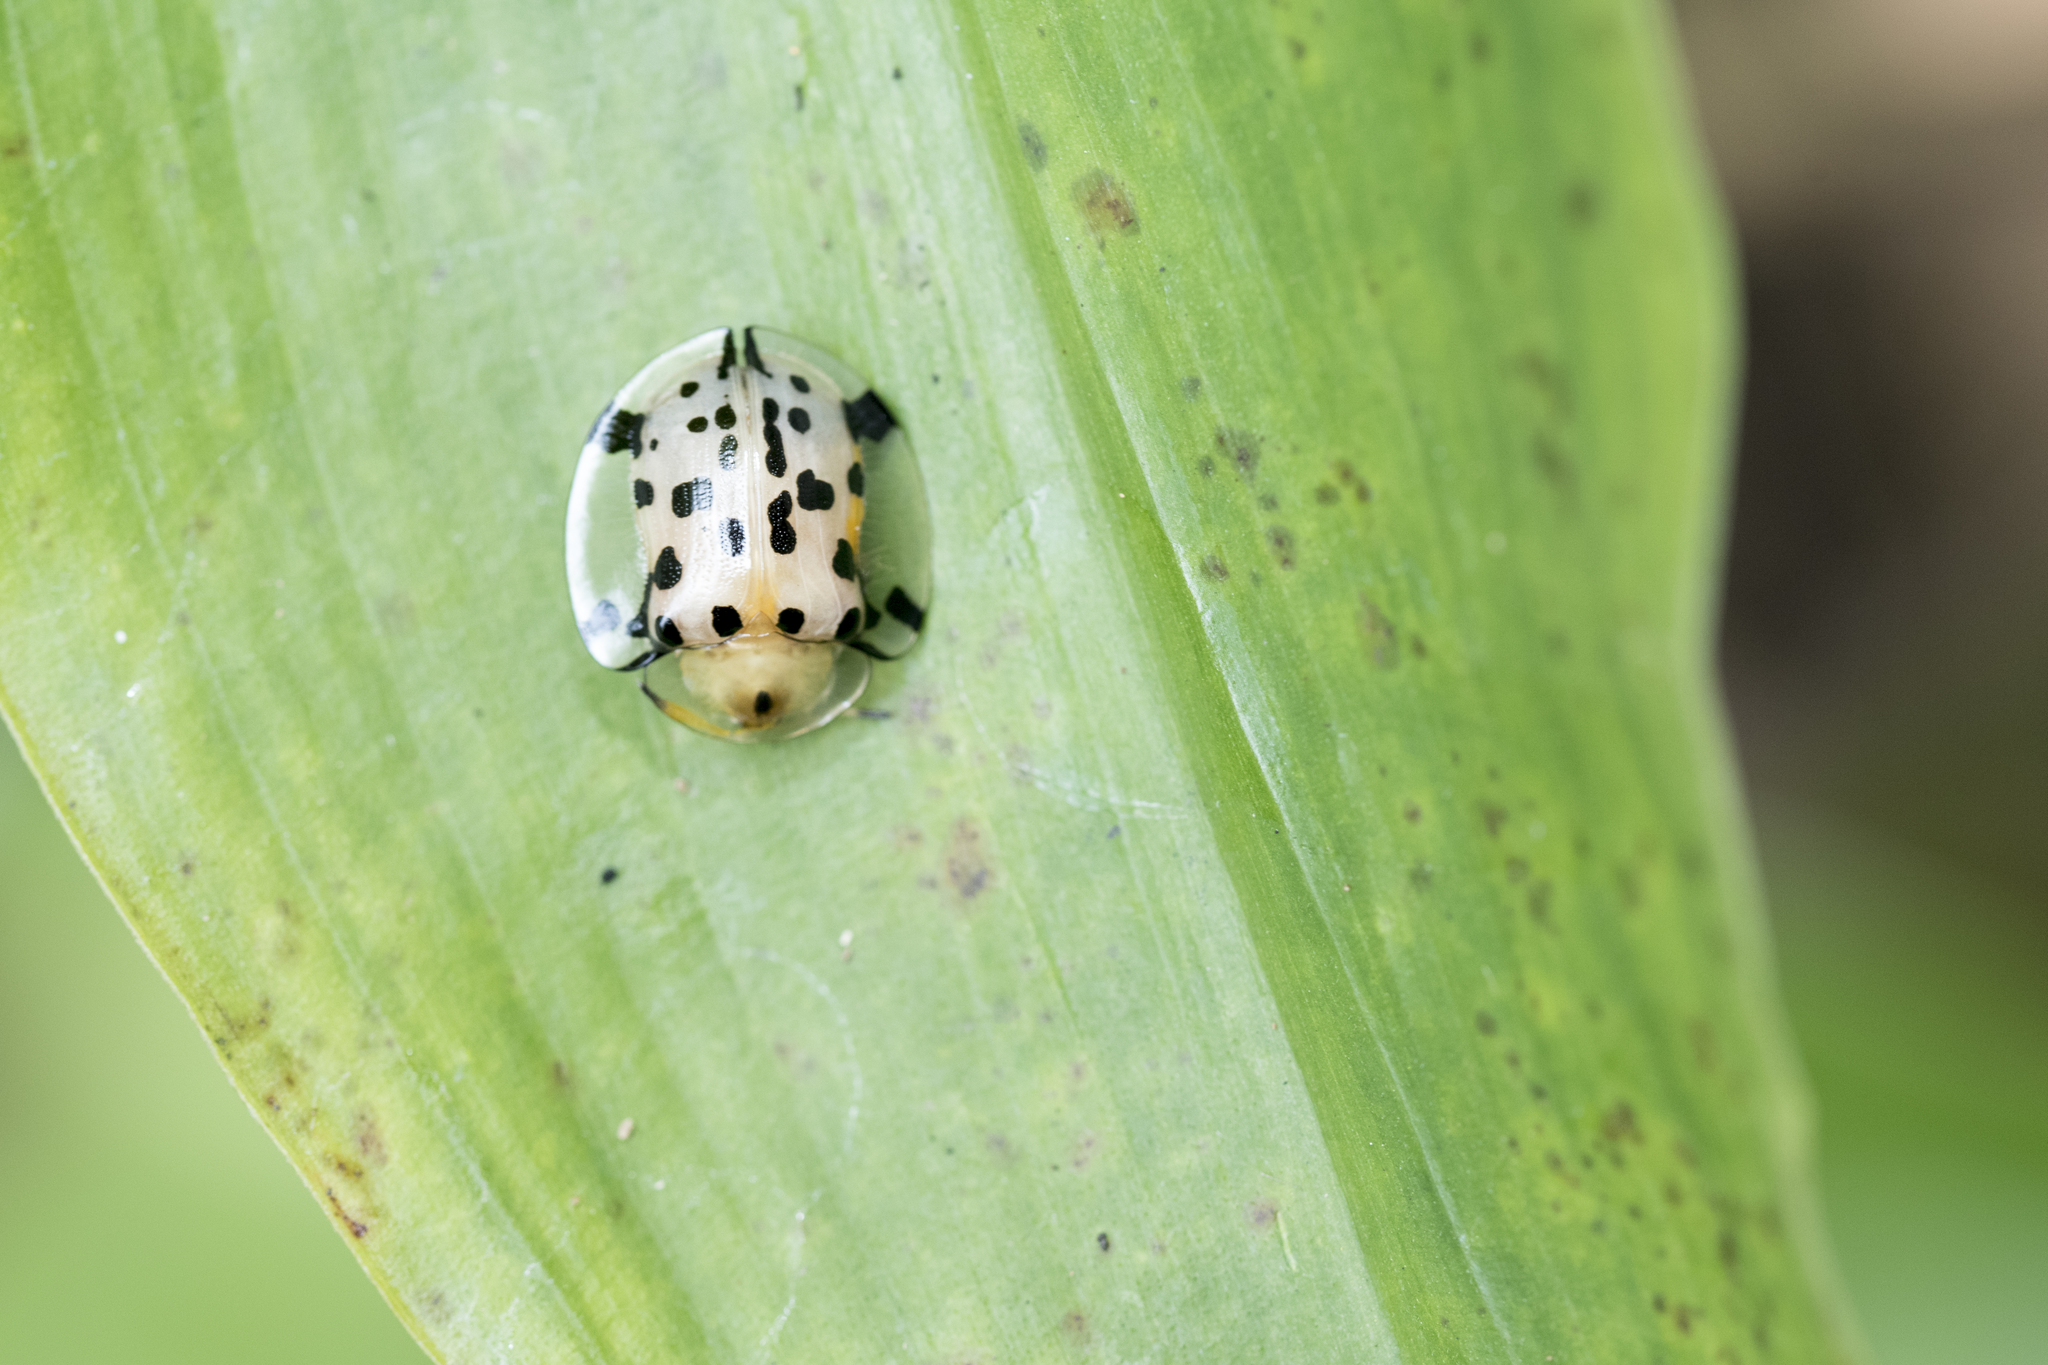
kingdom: Animalia
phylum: Arthropoda
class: Insecta
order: Coleoptera
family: Chrysomelidae
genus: Aspidimorpha
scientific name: Aspidimorpha miliaris
